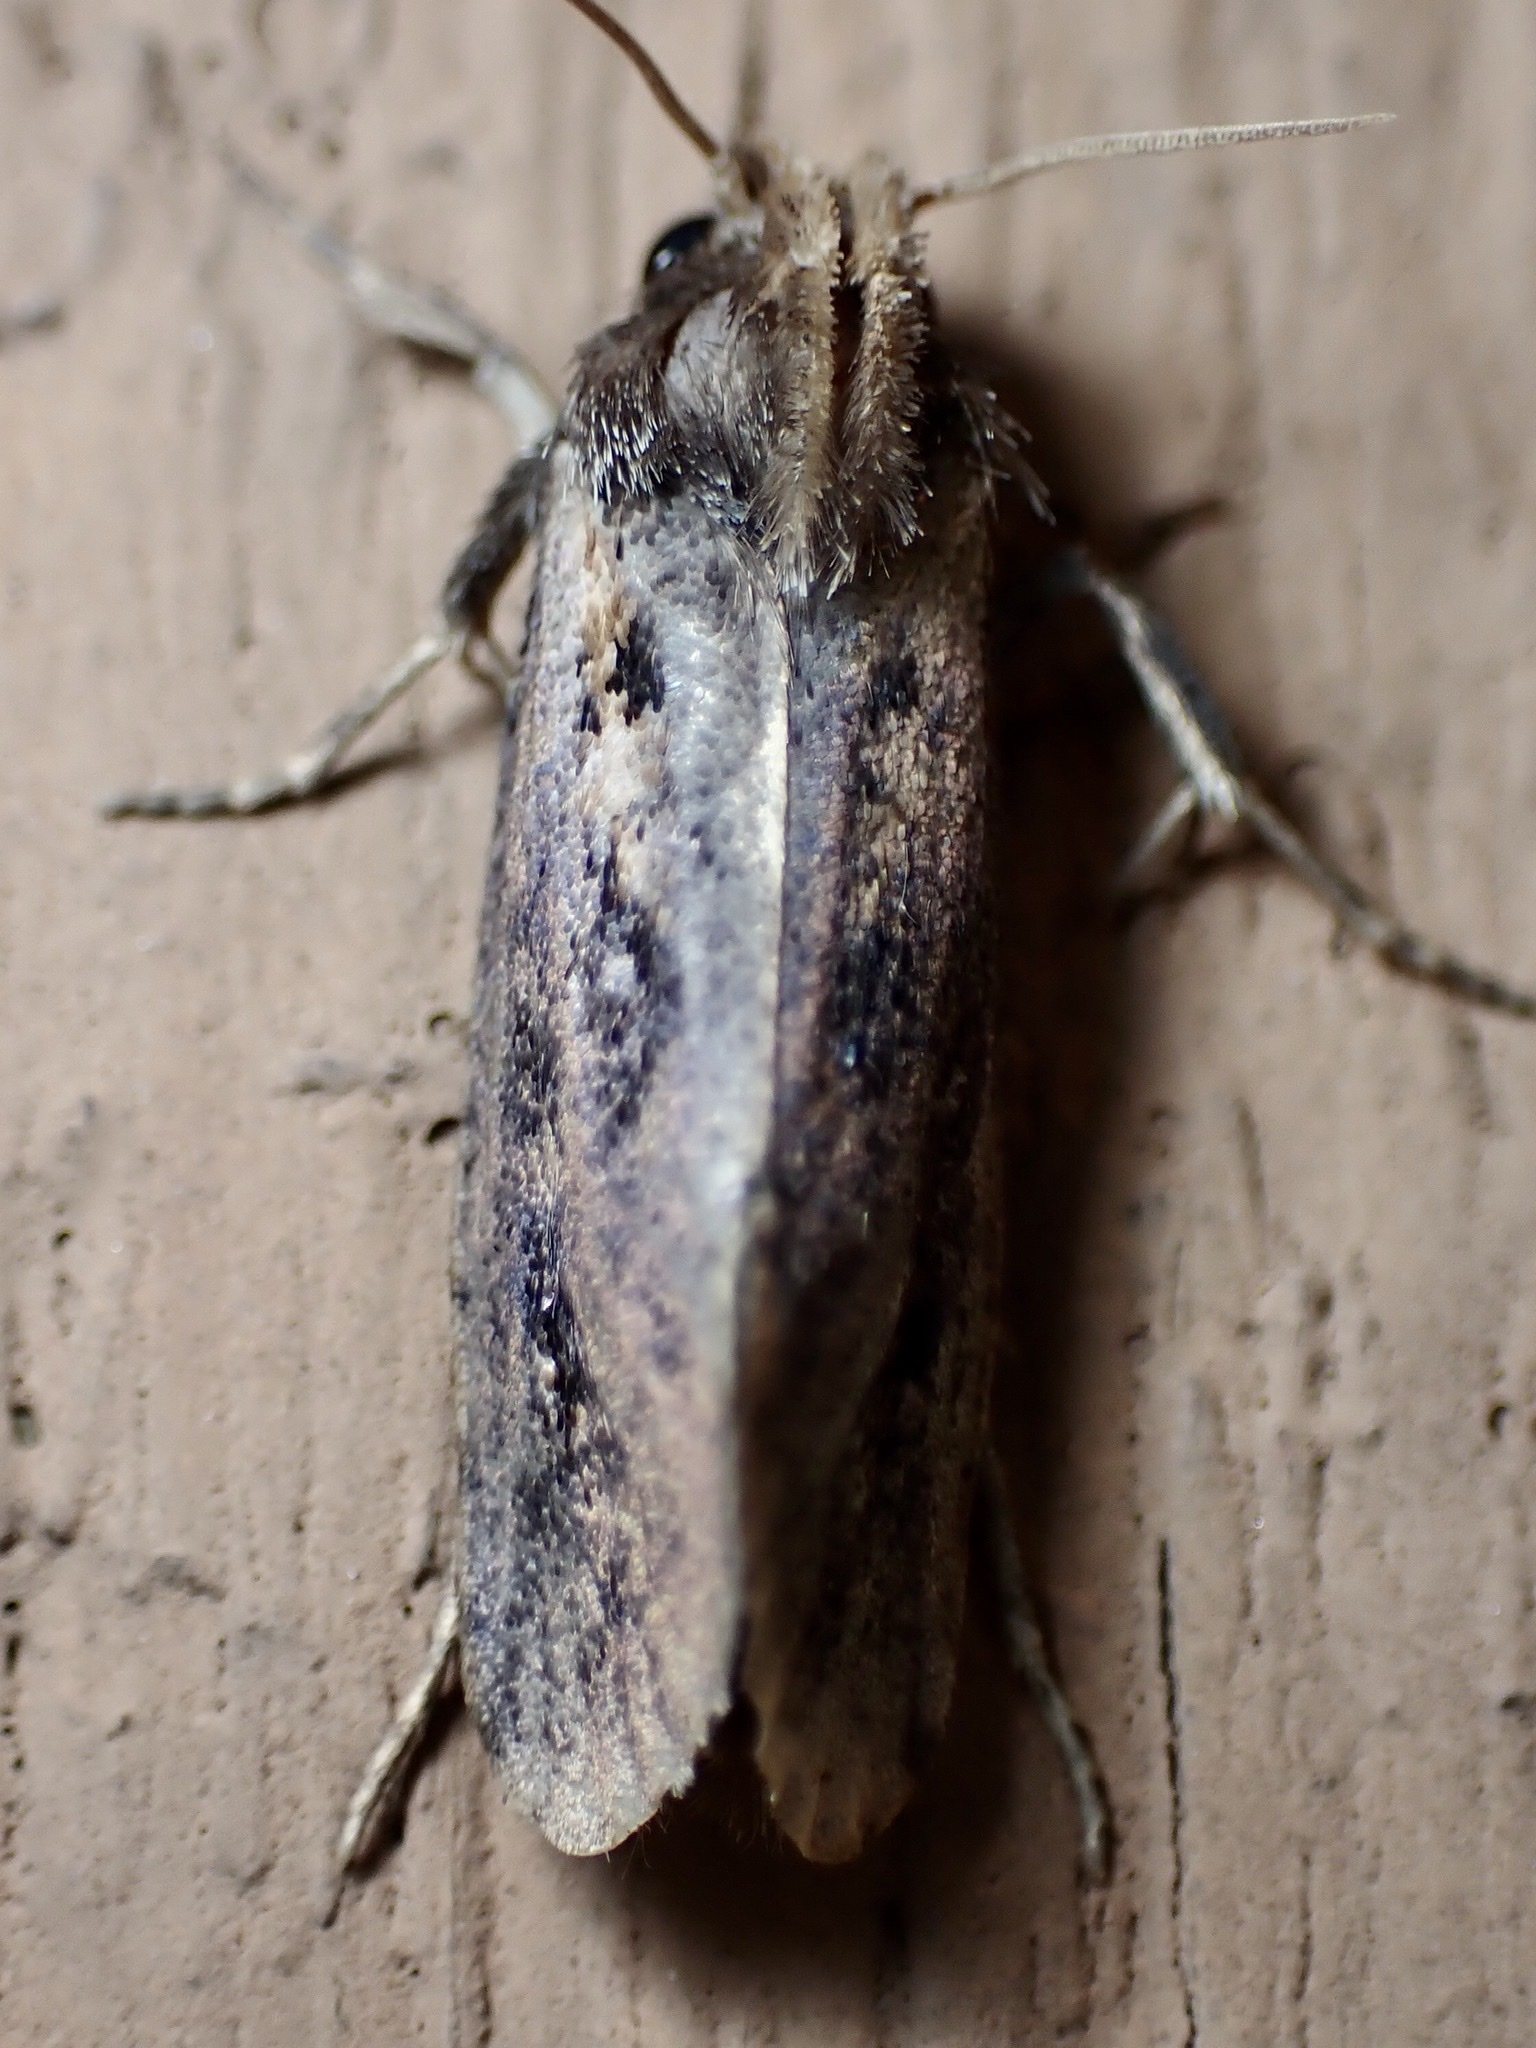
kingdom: Animalia
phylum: Arthropoda
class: Insecta
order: Lepidoptera
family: Tineidae
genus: Acrolophus
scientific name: Acrolophus popeanella
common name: Clemens' grass tubeworm moth
